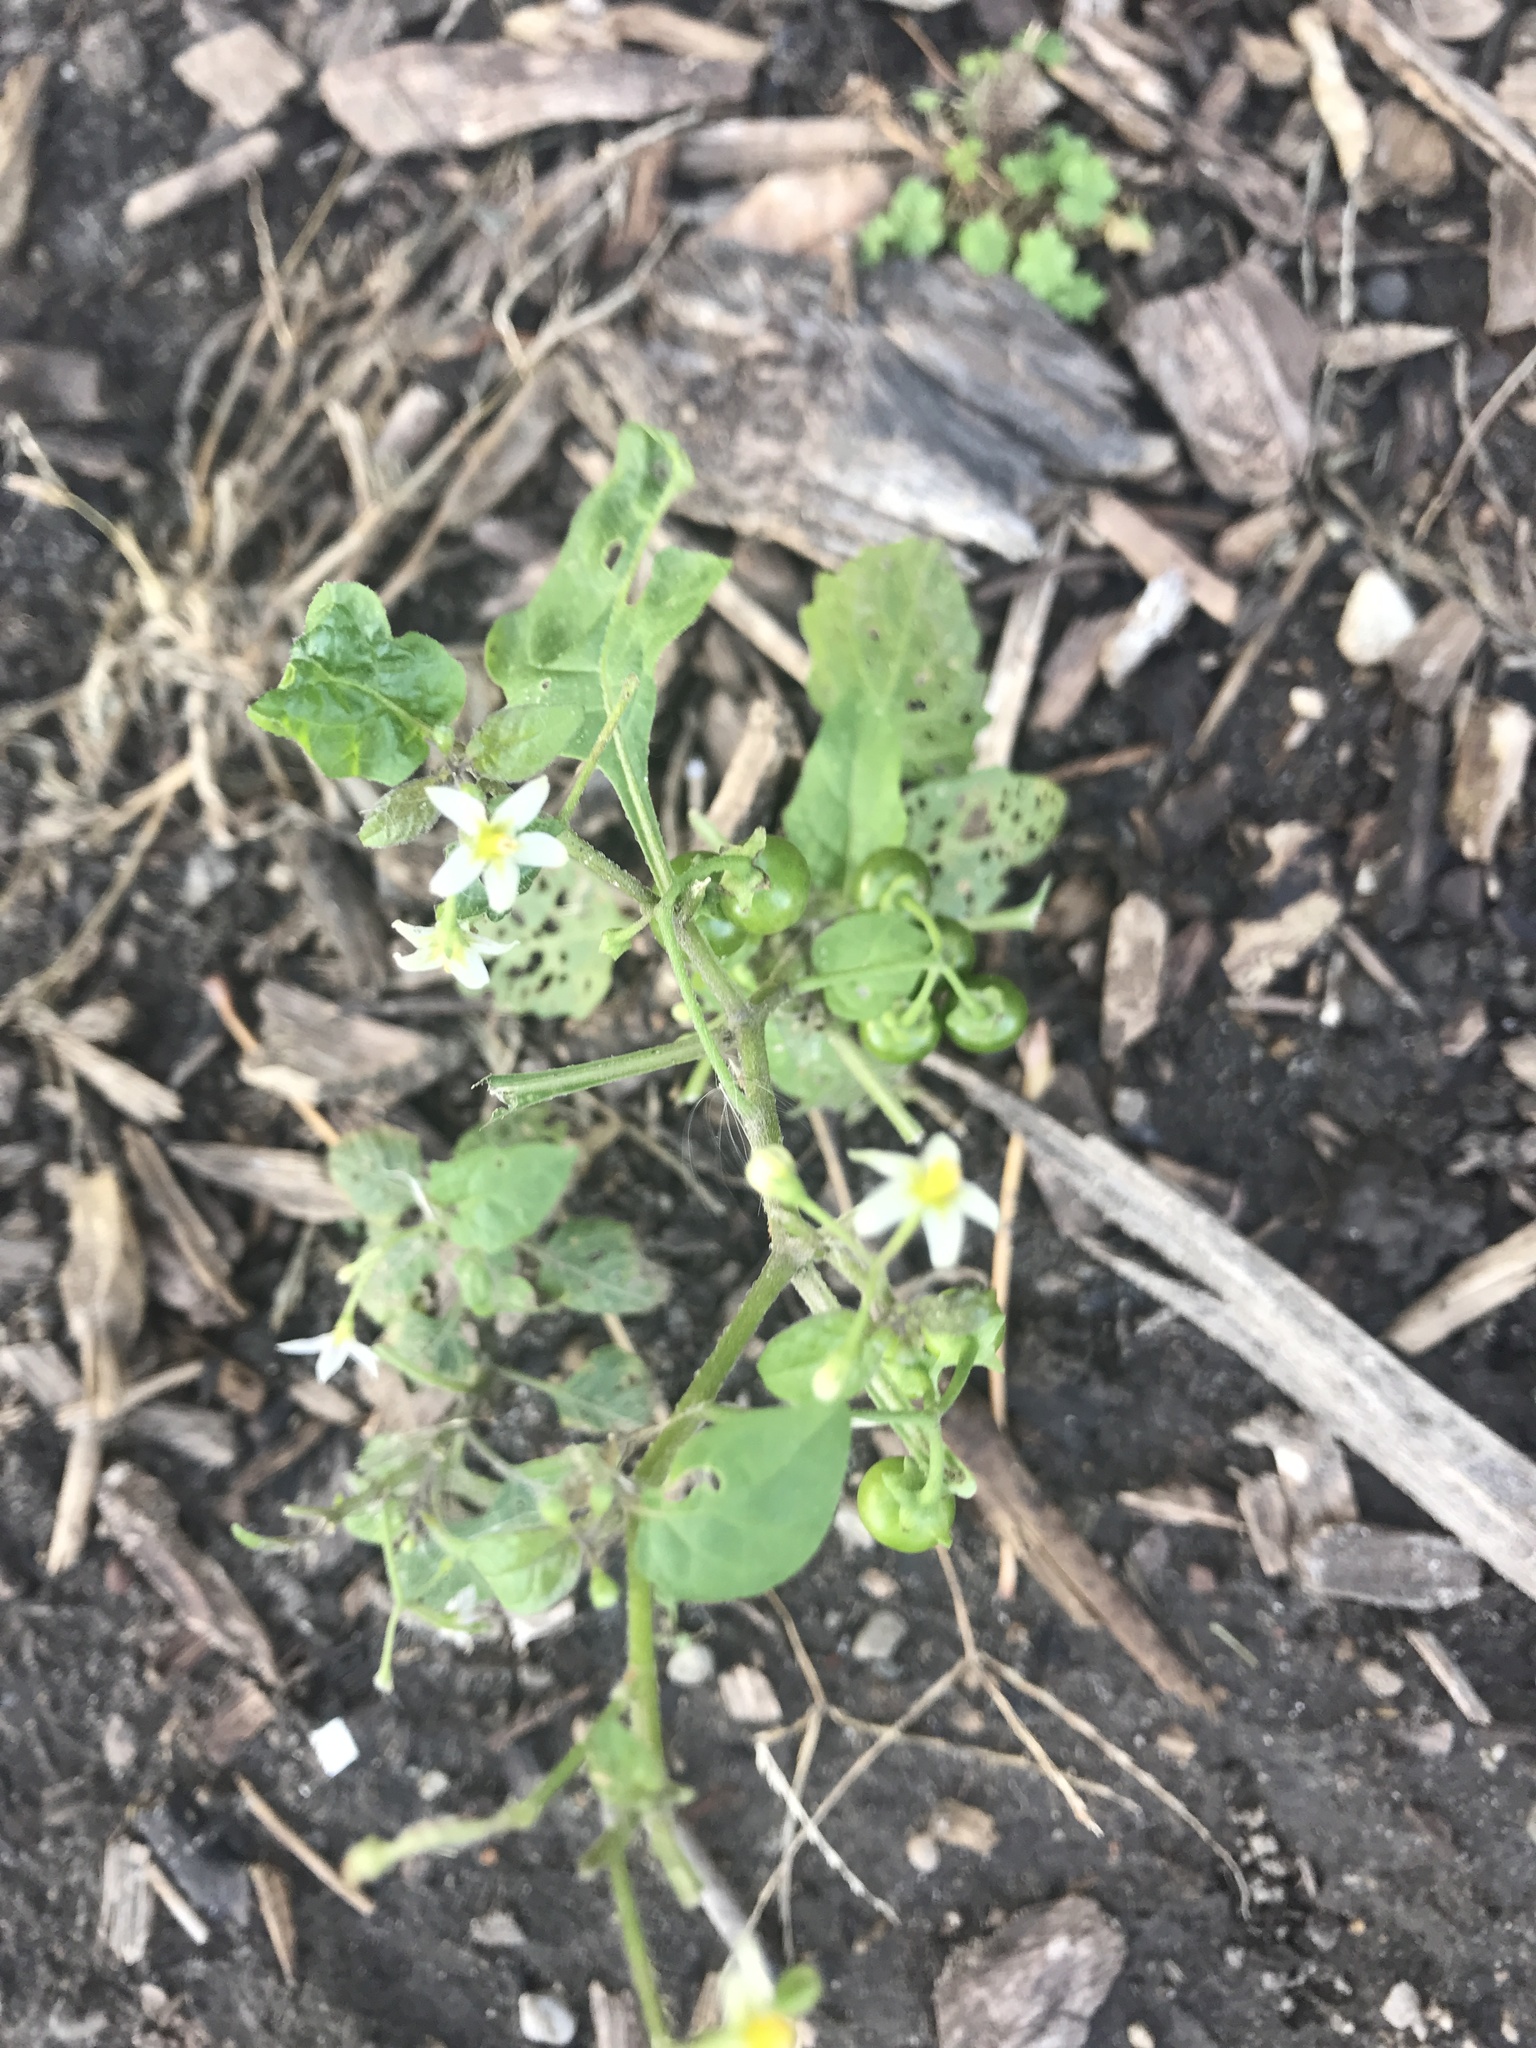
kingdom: Plantae
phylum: Tracheophyta
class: Magnoliopsida
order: Solanales
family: Solanaceae
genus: Solanum
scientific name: Solanum emulans
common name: Eastern black nightshade
